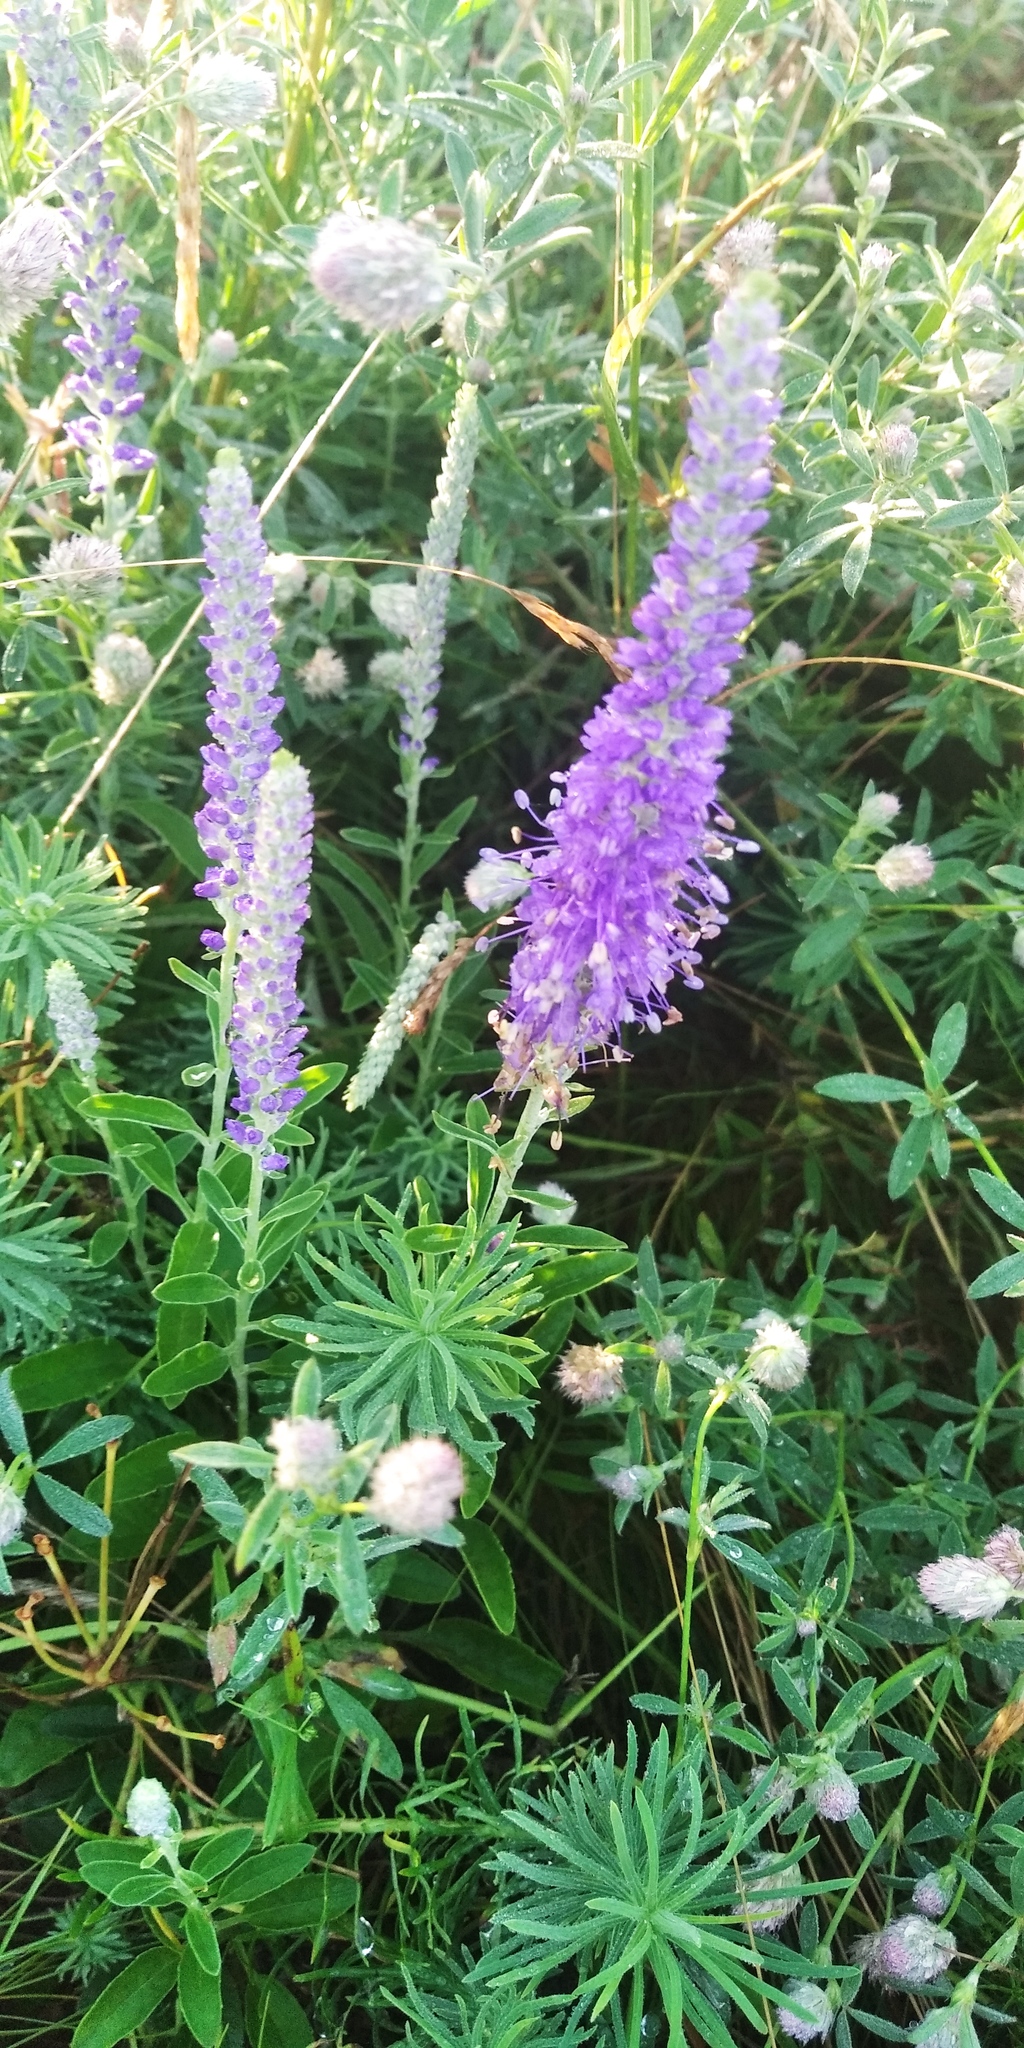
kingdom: Plantae
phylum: Tracheophyta
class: Magnoliopsida
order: Lamiales
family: Plantaginaceae
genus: Veronica
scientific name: Veronica spicata
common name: Spiked speedwell
